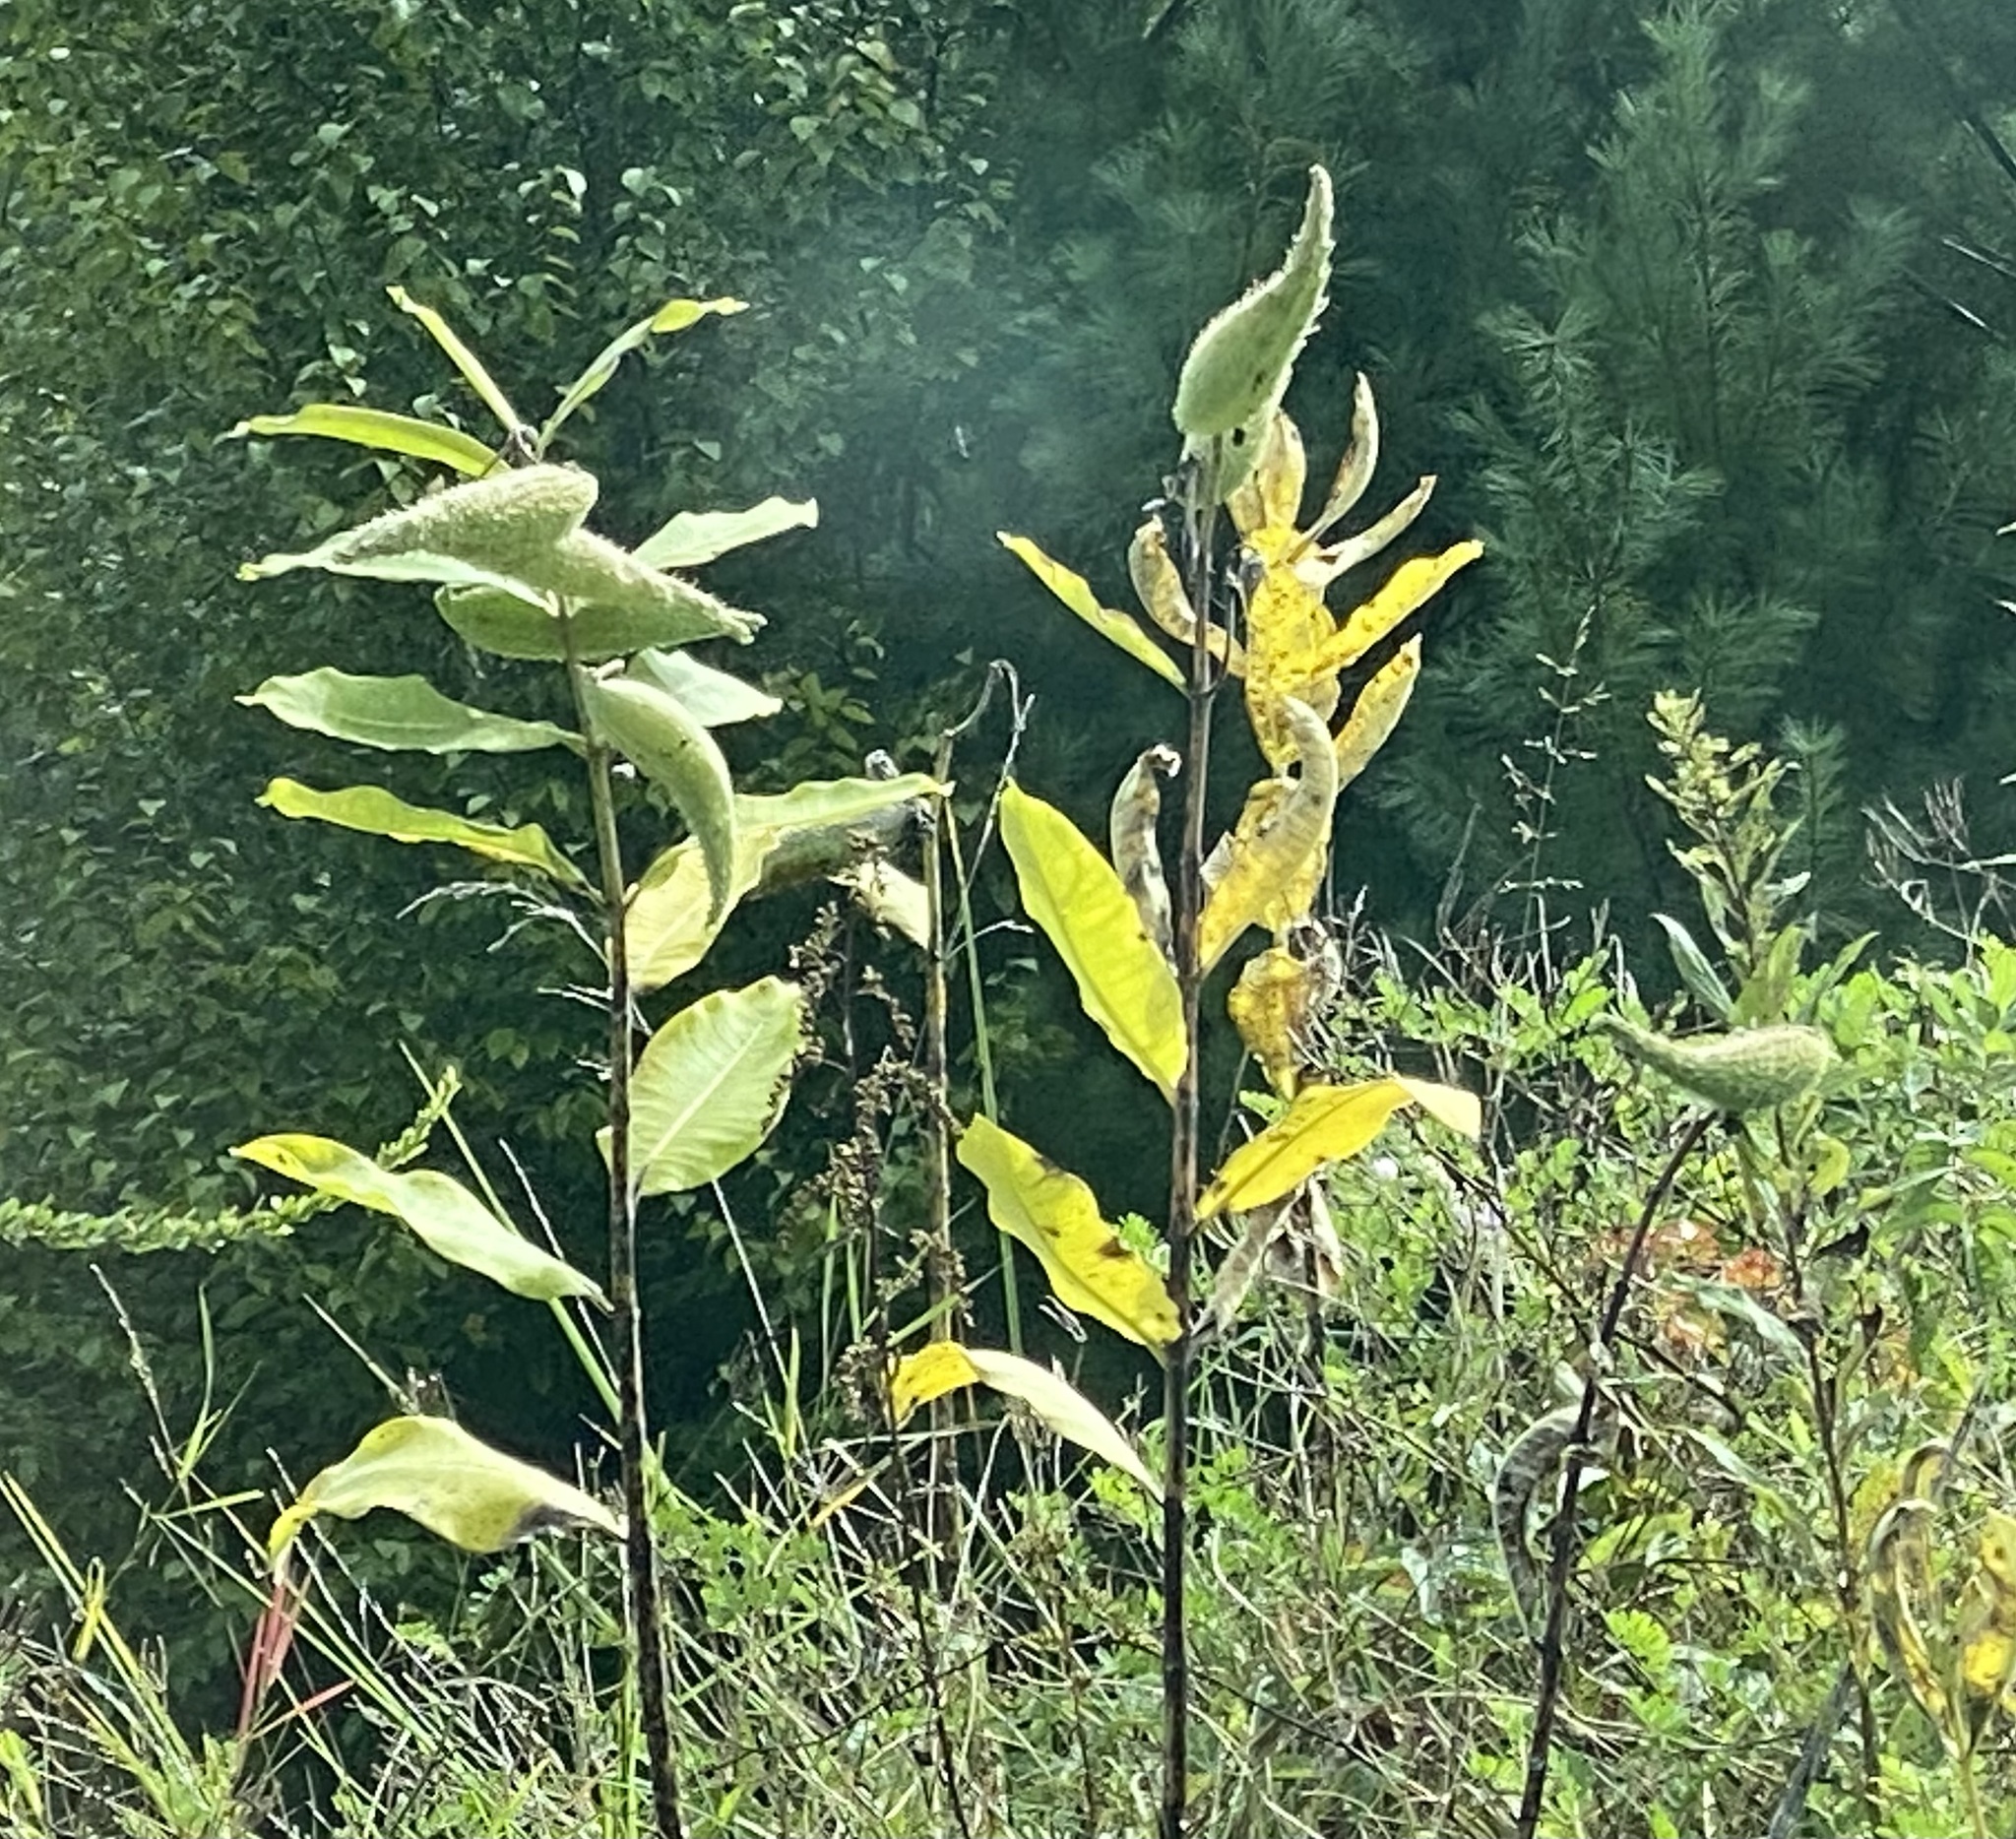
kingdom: Plantae
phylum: Tracheophyta
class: Magnoliopsida
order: Gentianales
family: Apocynaceae
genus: Asclepias
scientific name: Asclepias syriaca
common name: Common milkweed
